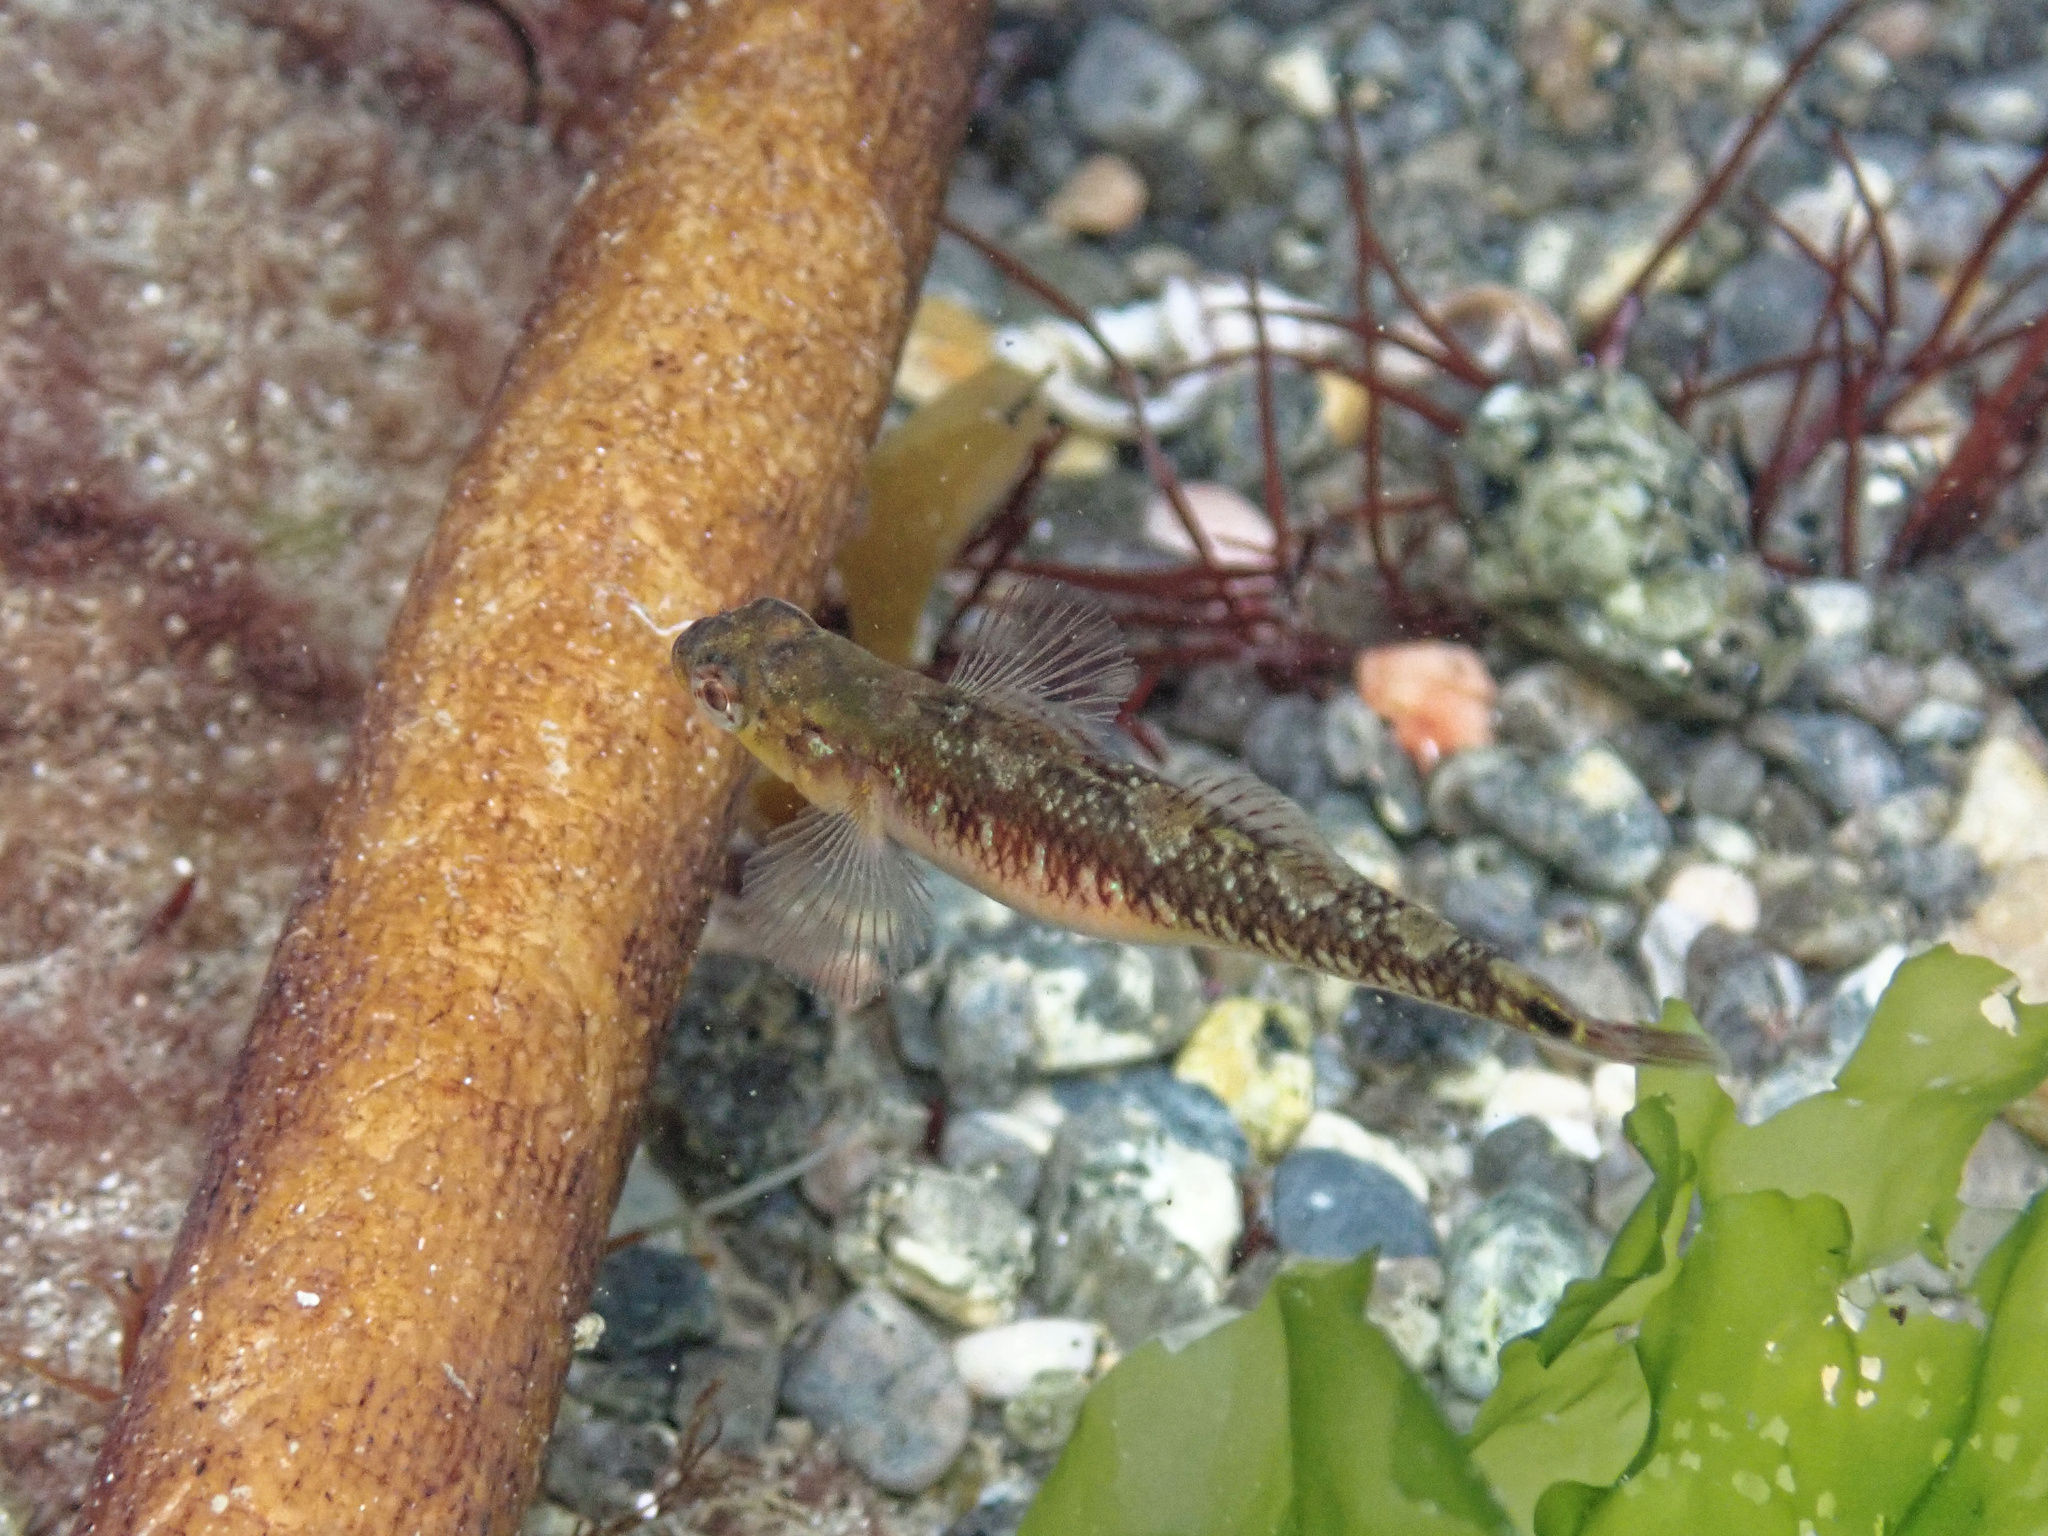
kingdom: Animalia
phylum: Chordata
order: Perciformes
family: Gobiidae
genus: Gobiusculus
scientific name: Gobiusculus flavescens
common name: Two-spotted goby
